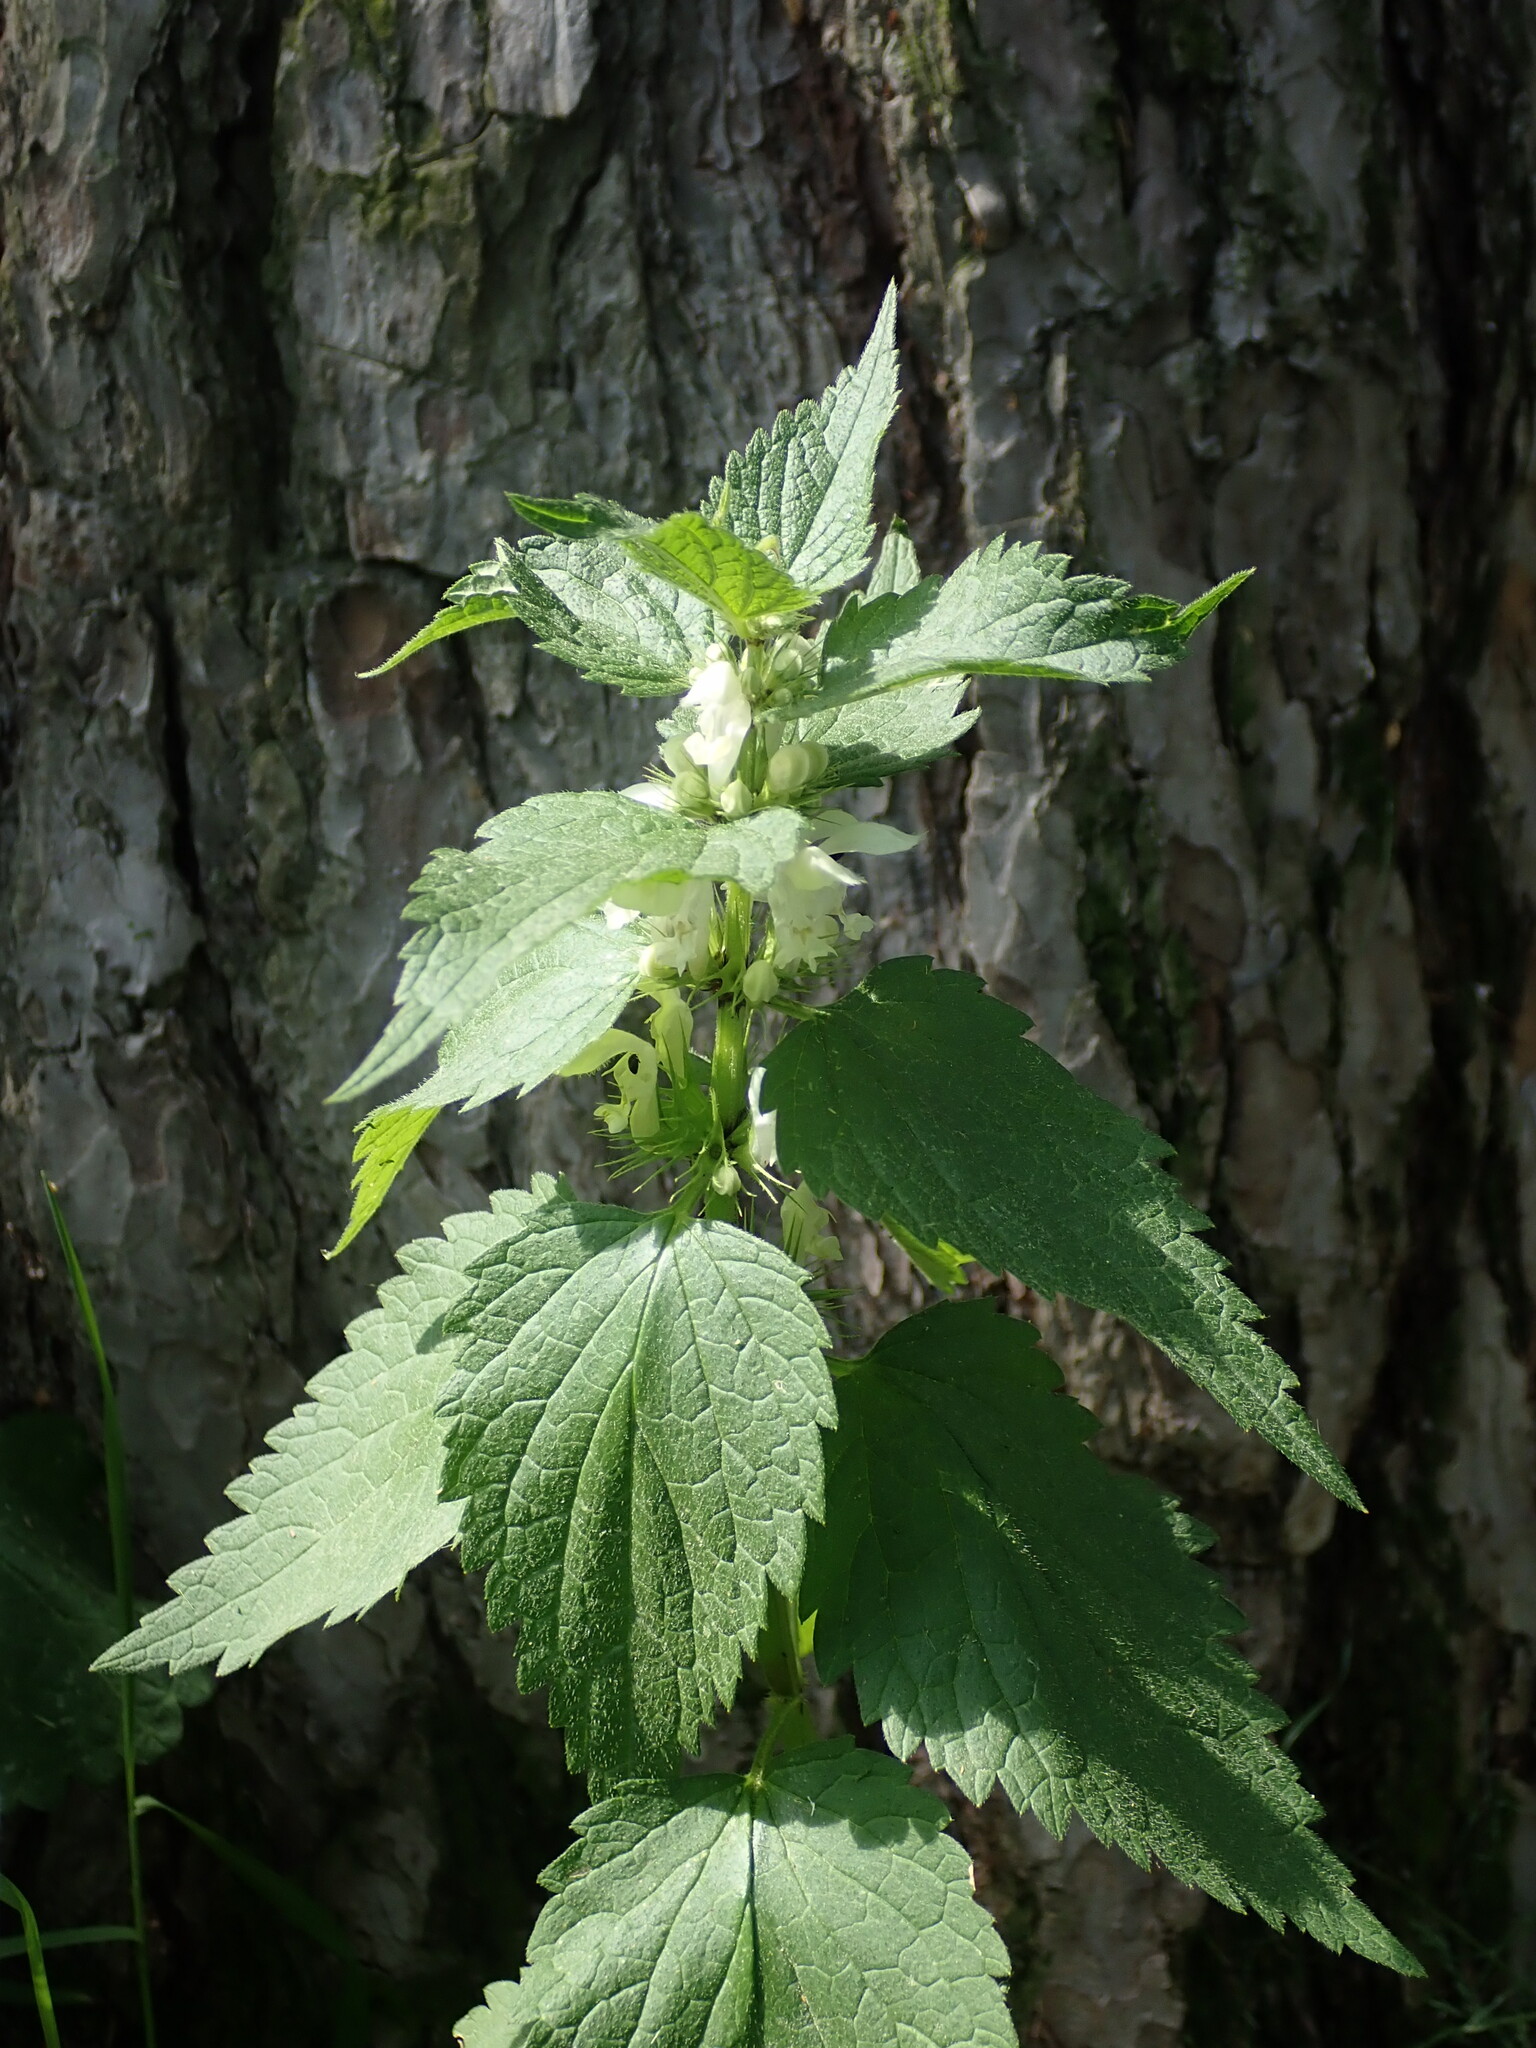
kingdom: Plantae
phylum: Tracheophyta
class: Magnoliopsida
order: Lamiales
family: Lamiaceae
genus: Lamium
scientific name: Lamium album
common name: White dead-nettle
